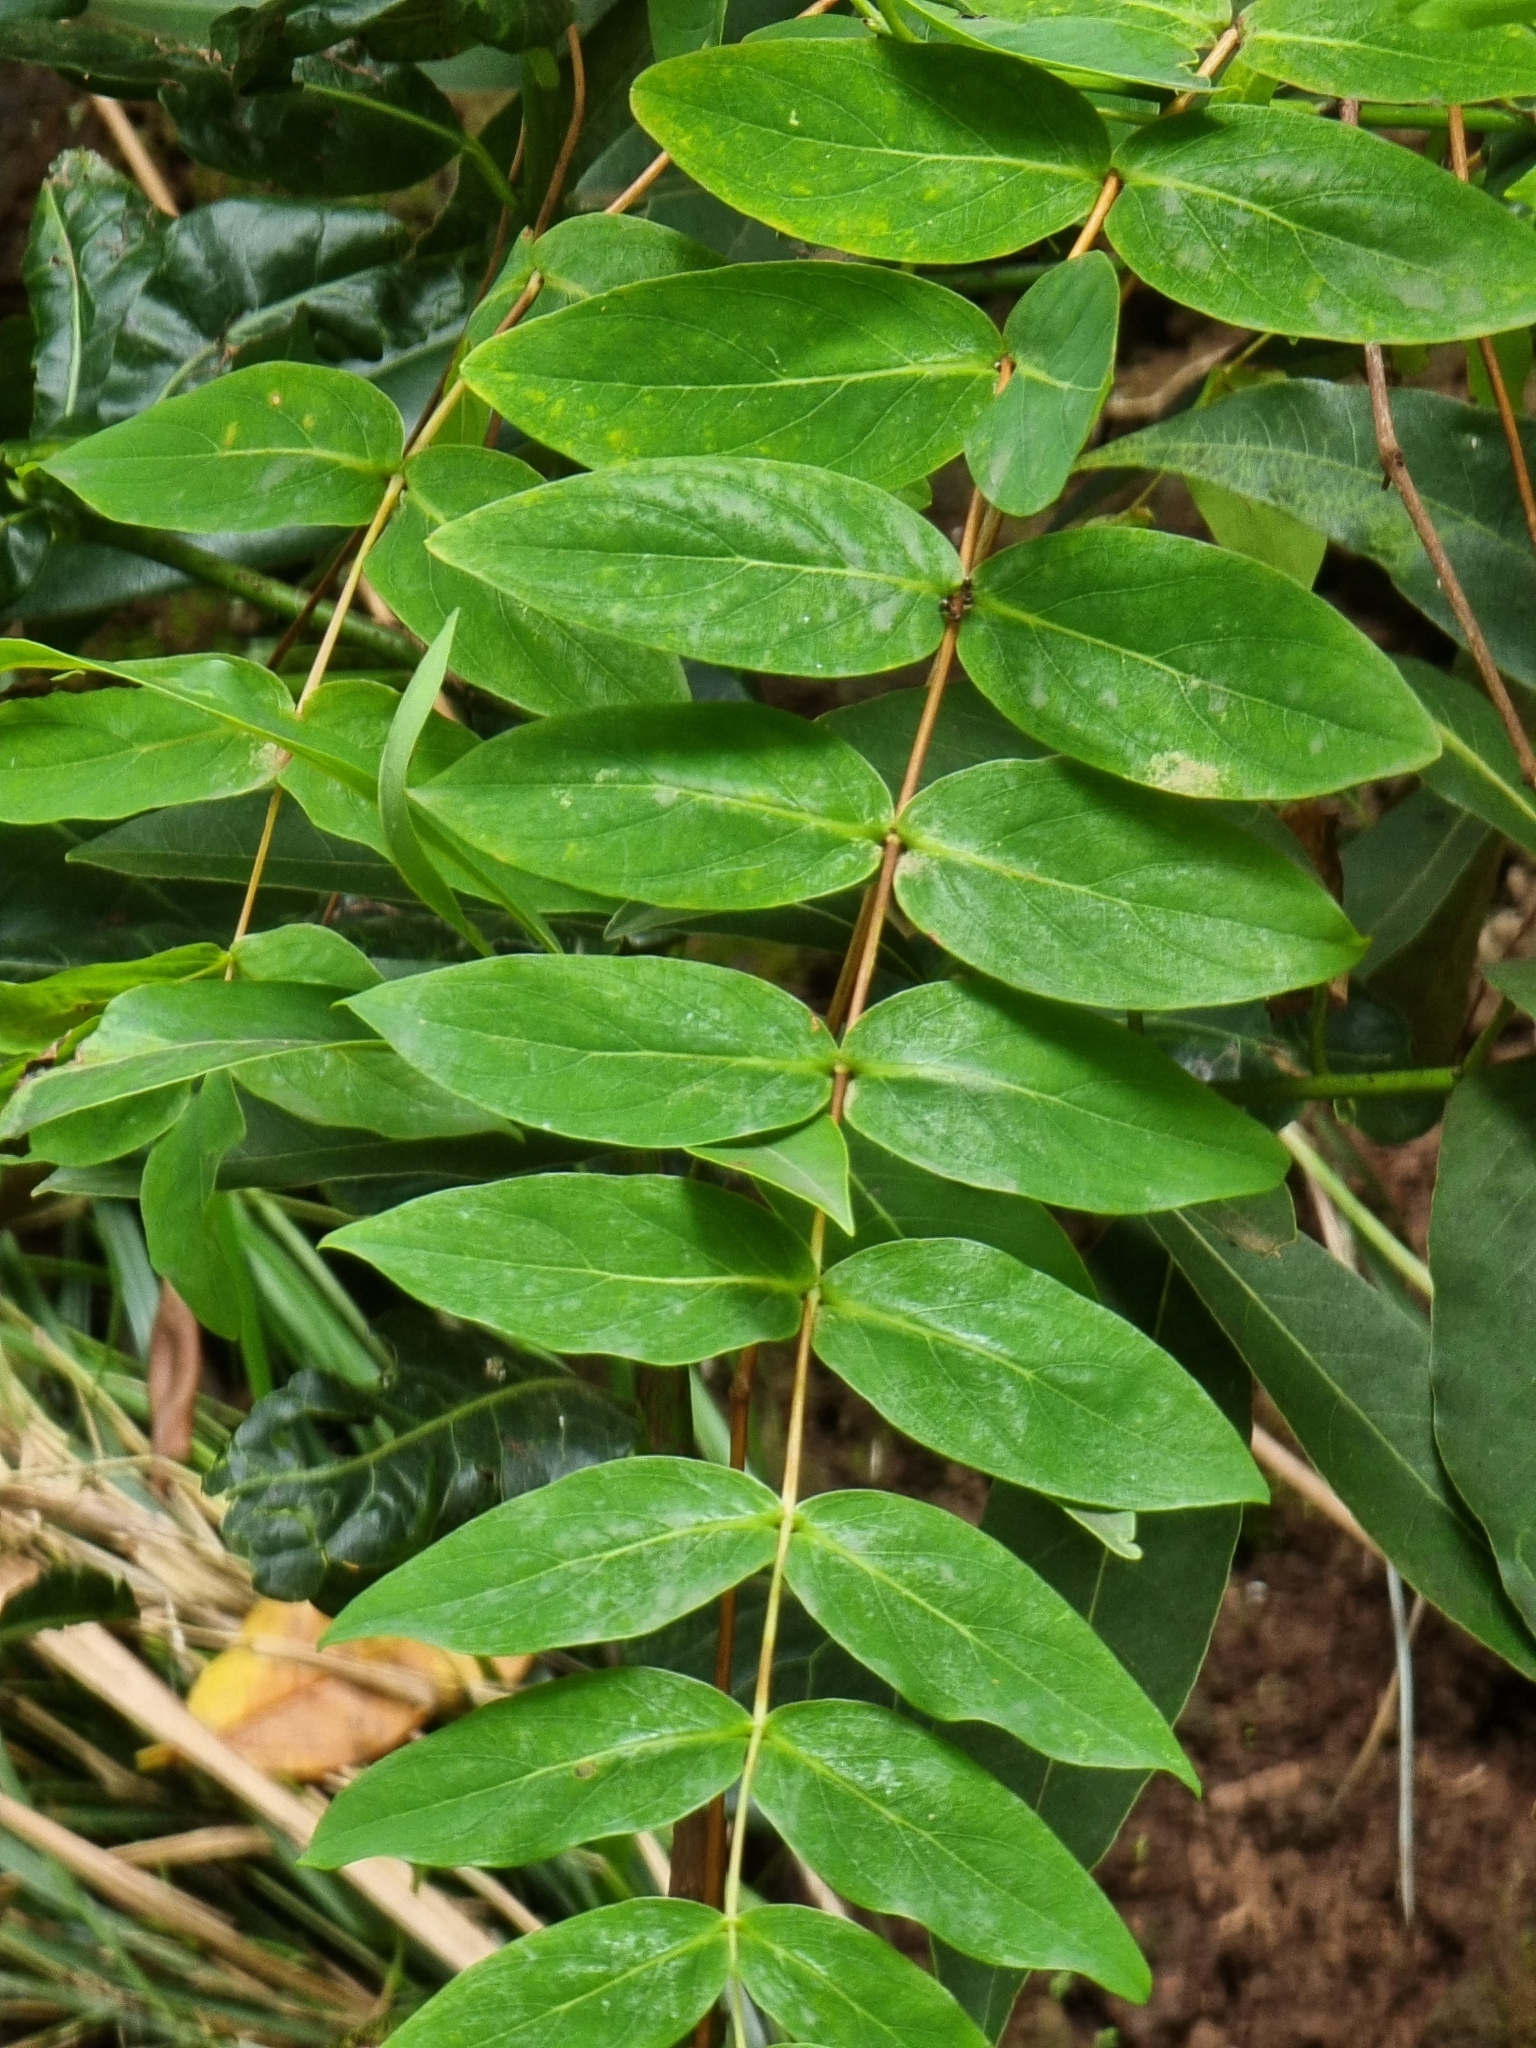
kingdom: Plantae
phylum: Tracheophyta
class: Magnoliopsida
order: Malpighiales
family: Hypericaceae
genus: Hypericum
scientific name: Hypericum grandifolium
